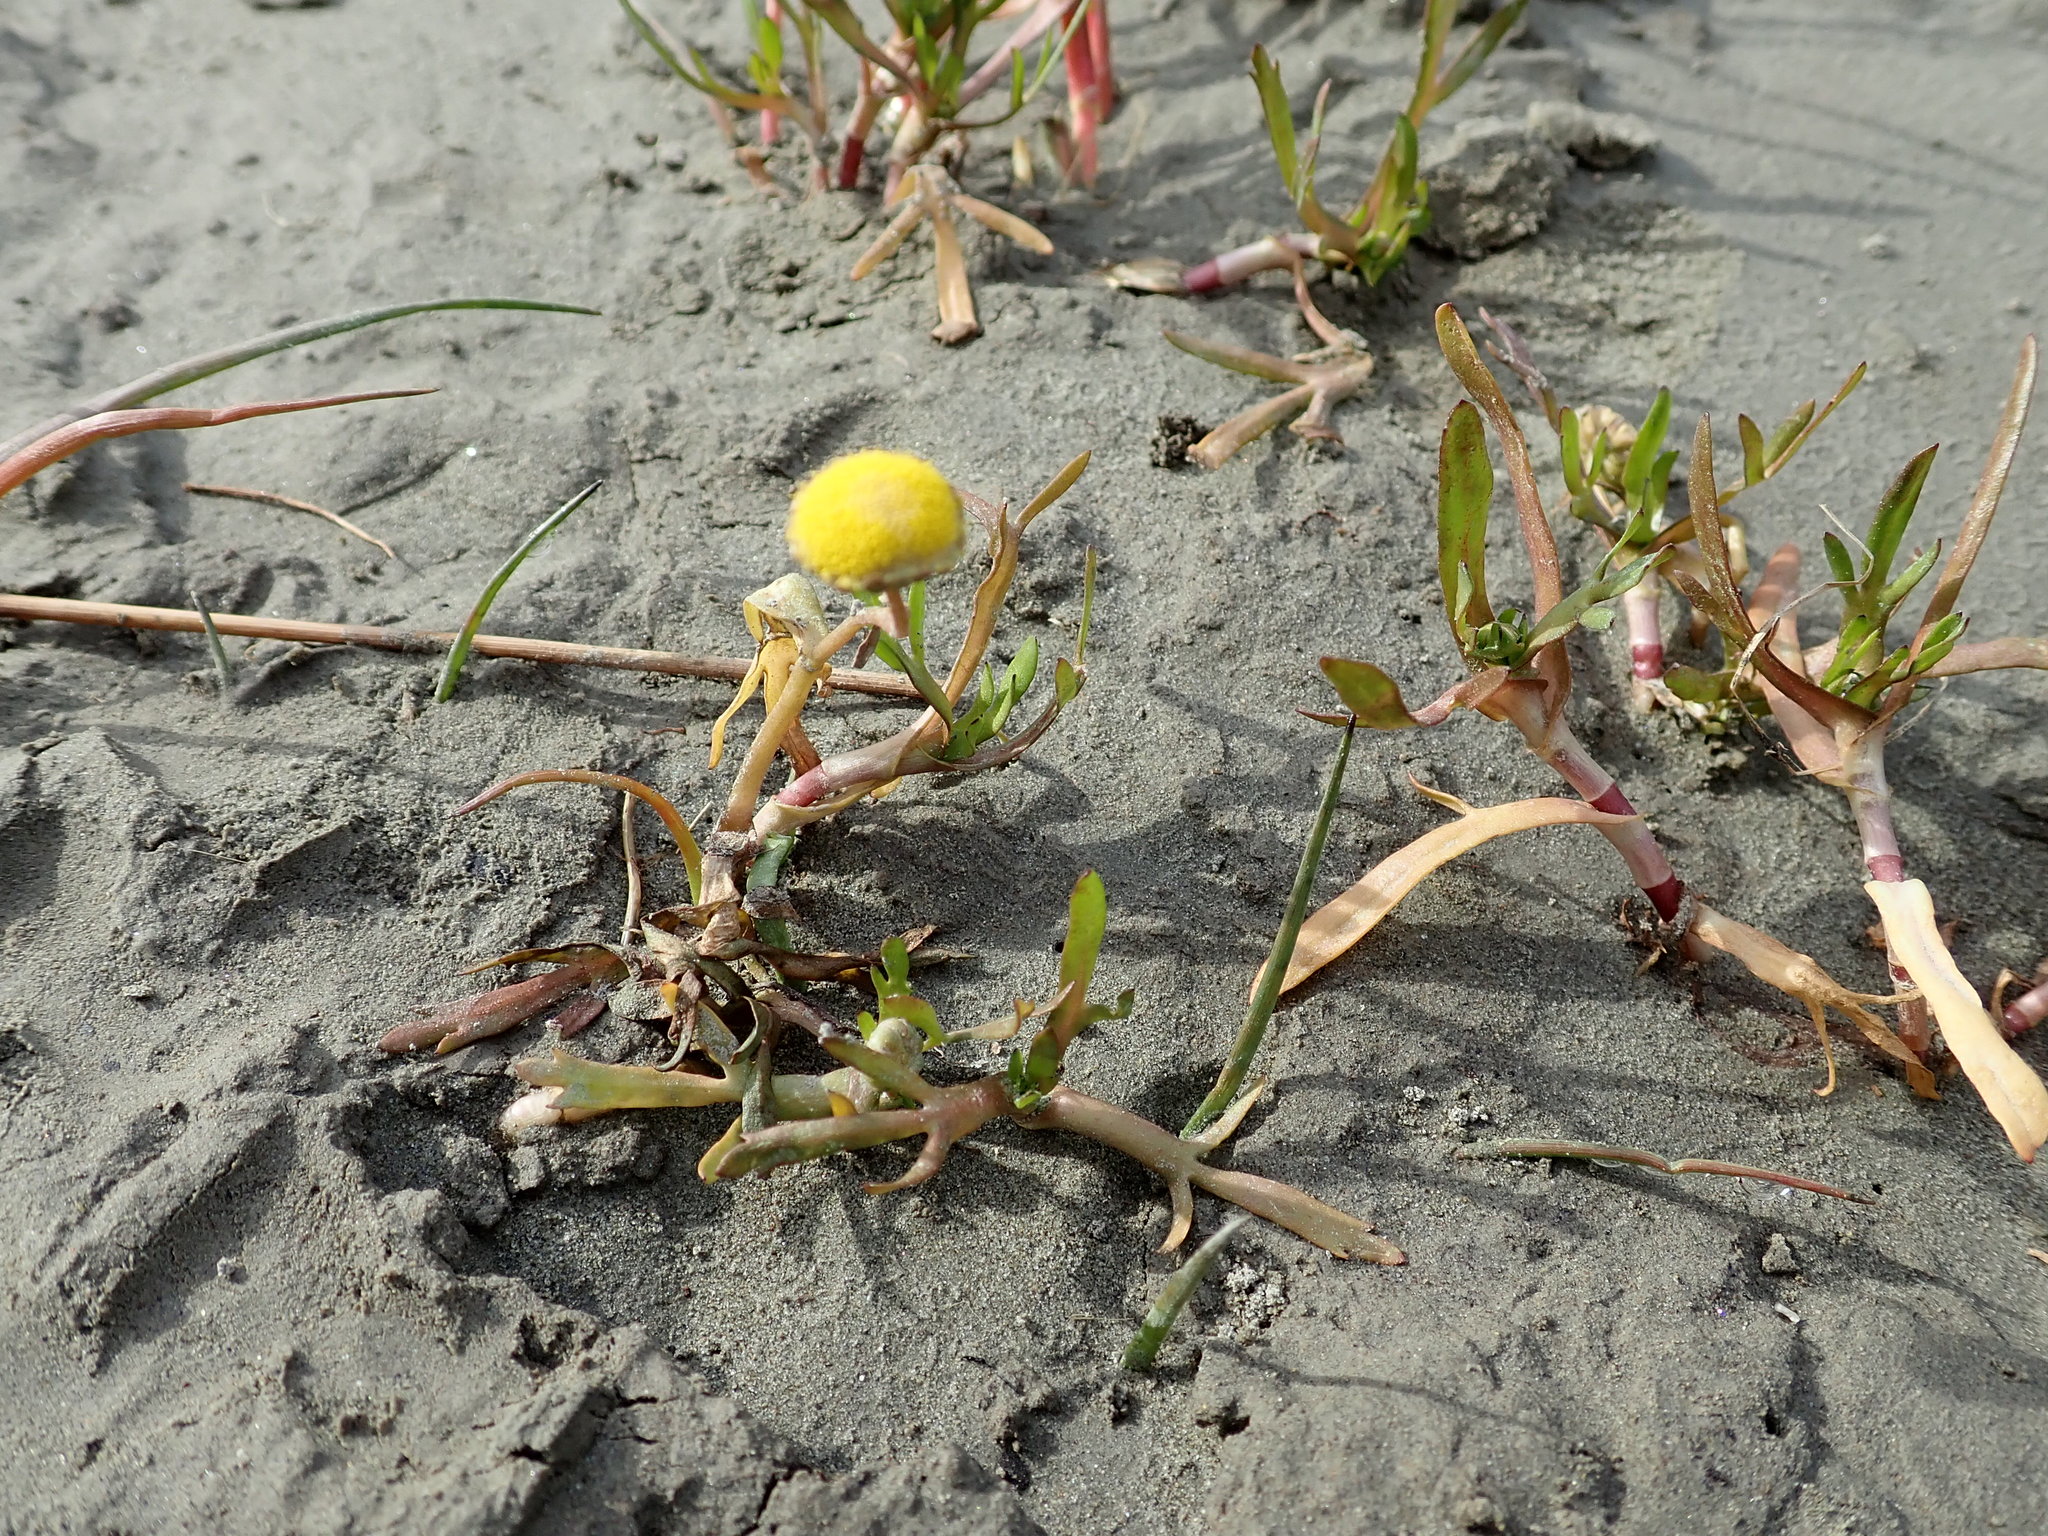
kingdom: Plantae
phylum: Tracheophyta
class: Magnoliopsida
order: Asterales
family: Asteraceae
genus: Cotula
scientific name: Cotula coronopifolia
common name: Buttonweed
